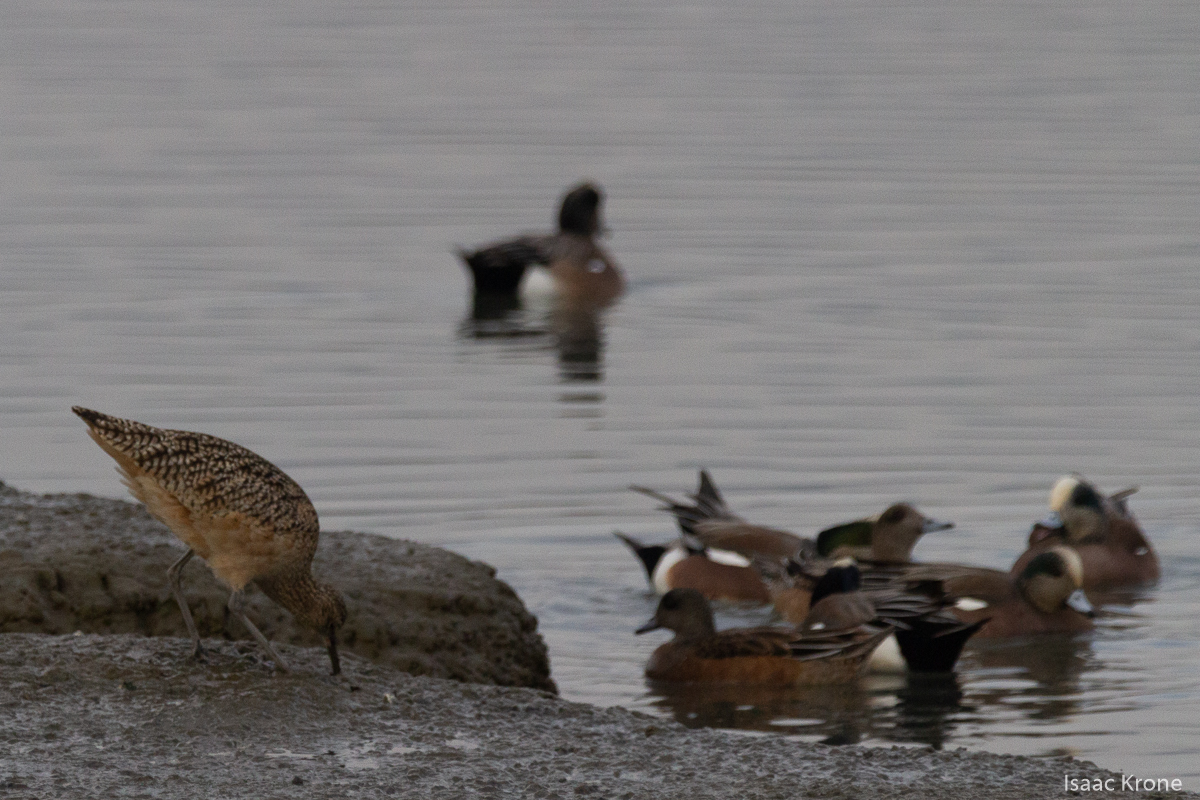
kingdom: Animalia
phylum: Chordata
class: Aves
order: Charadriiformes
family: Scolopacidae
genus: Numenius
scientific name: Numenius americanus
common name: Long-billed curlew
